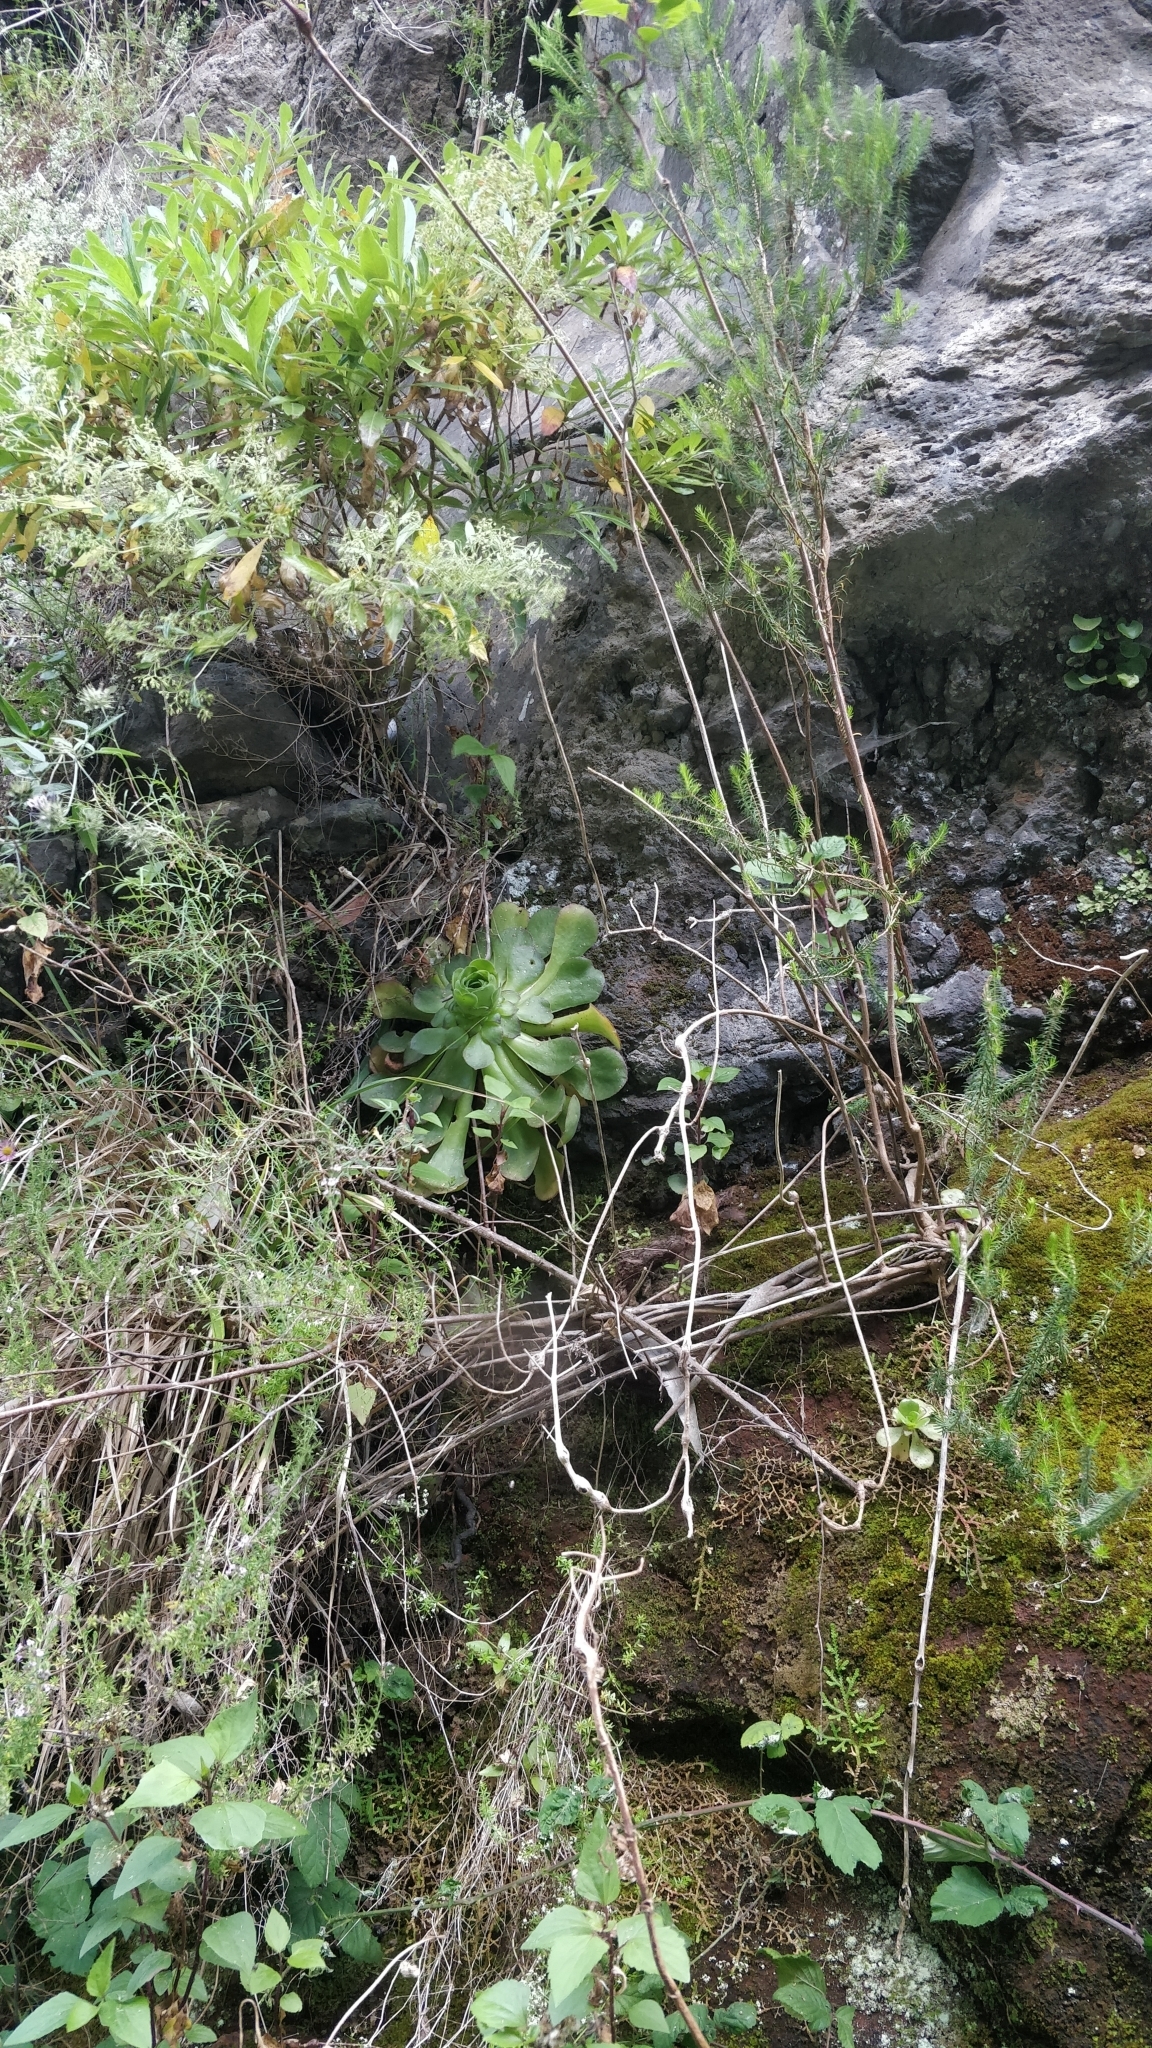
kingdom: Plantae
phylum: Tracheophyta
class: Magnoliopsida
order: Saxifragales
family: Crassulaceae
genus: Aeonium
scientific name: Aeonium glandulosum
